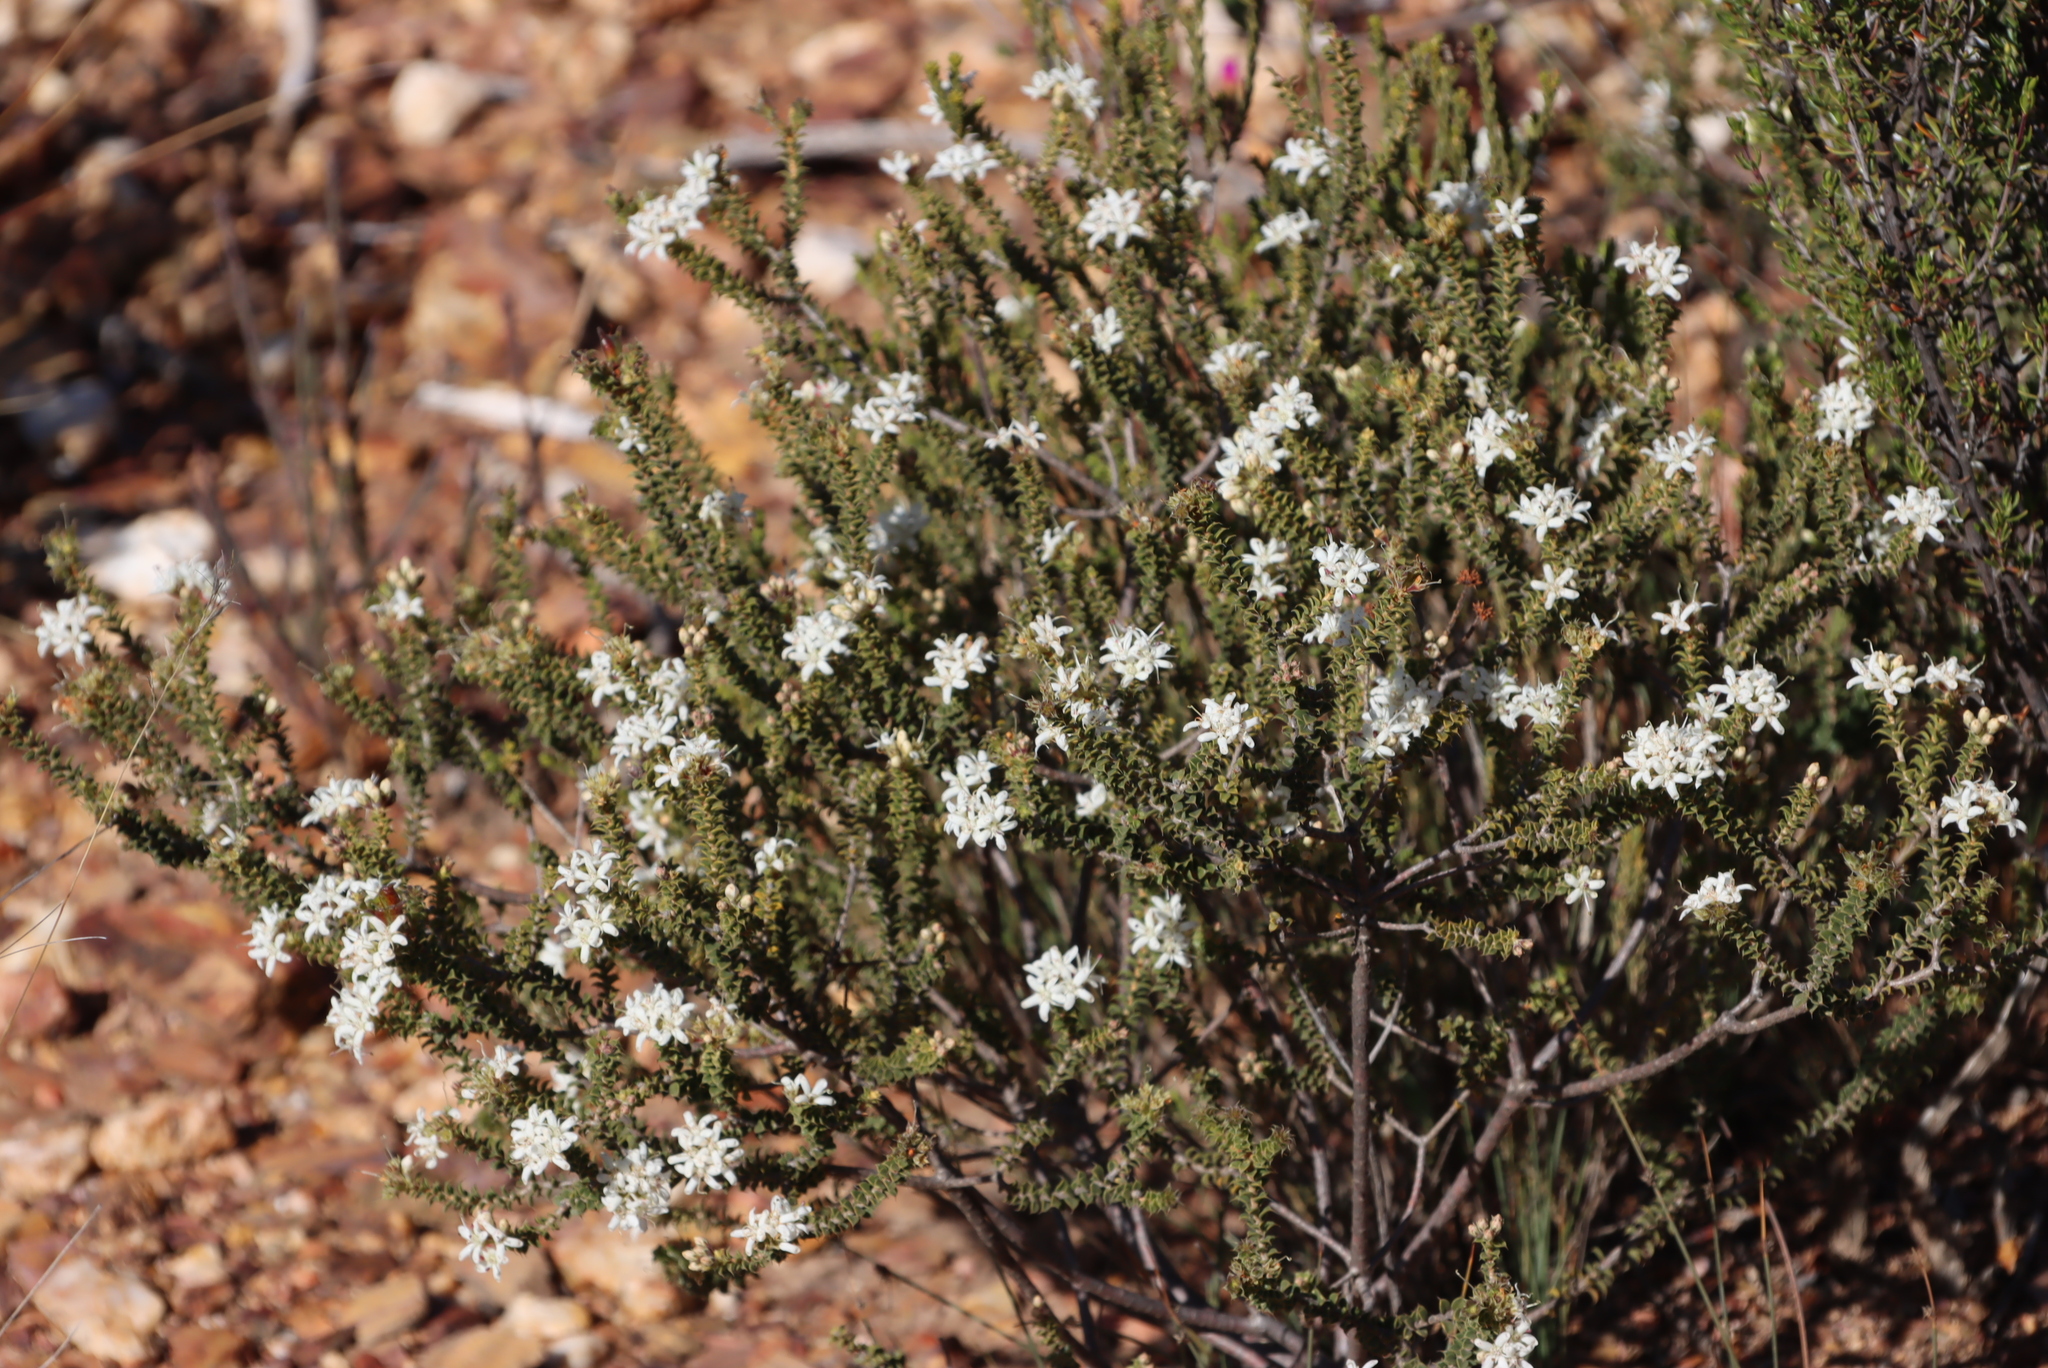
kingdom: Plantae
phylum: Tracheophyta
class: Magnoliopsida
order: Sapindales
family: Rutaceae
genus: Agathosma
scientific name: Agathosma recurvifolia
